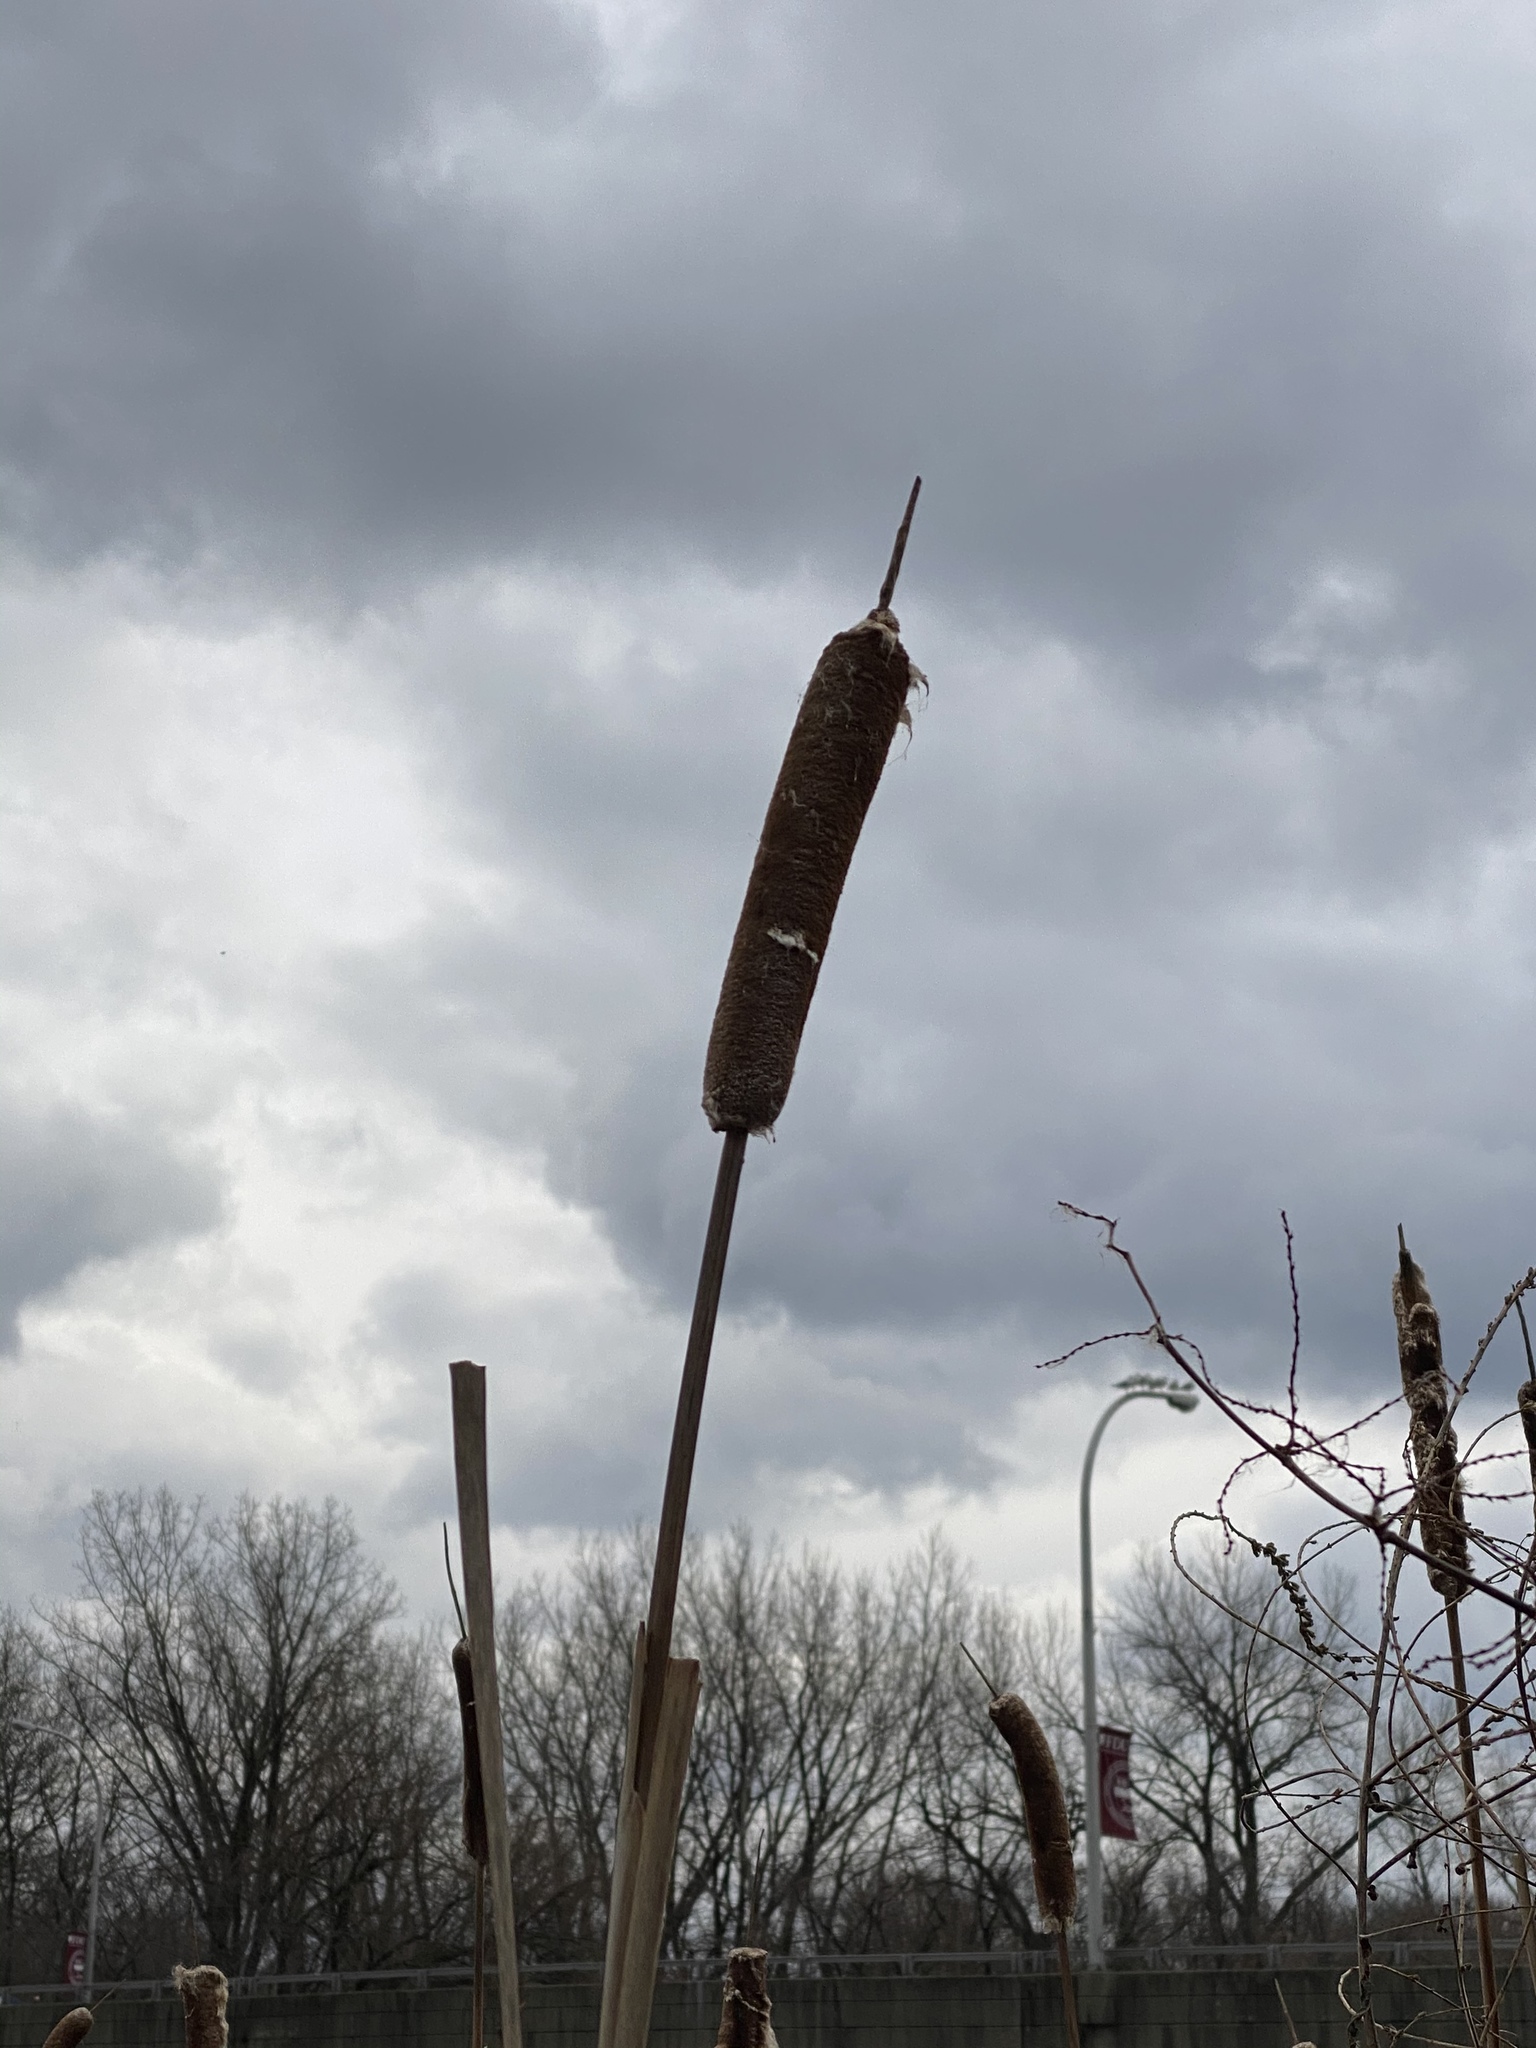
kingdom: Plantae
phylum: Tracheophyta
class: Liliopsida
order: Poales
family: Typhaceae
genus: Typha
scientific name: Typha latifolia
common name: Broadleaf cattail
